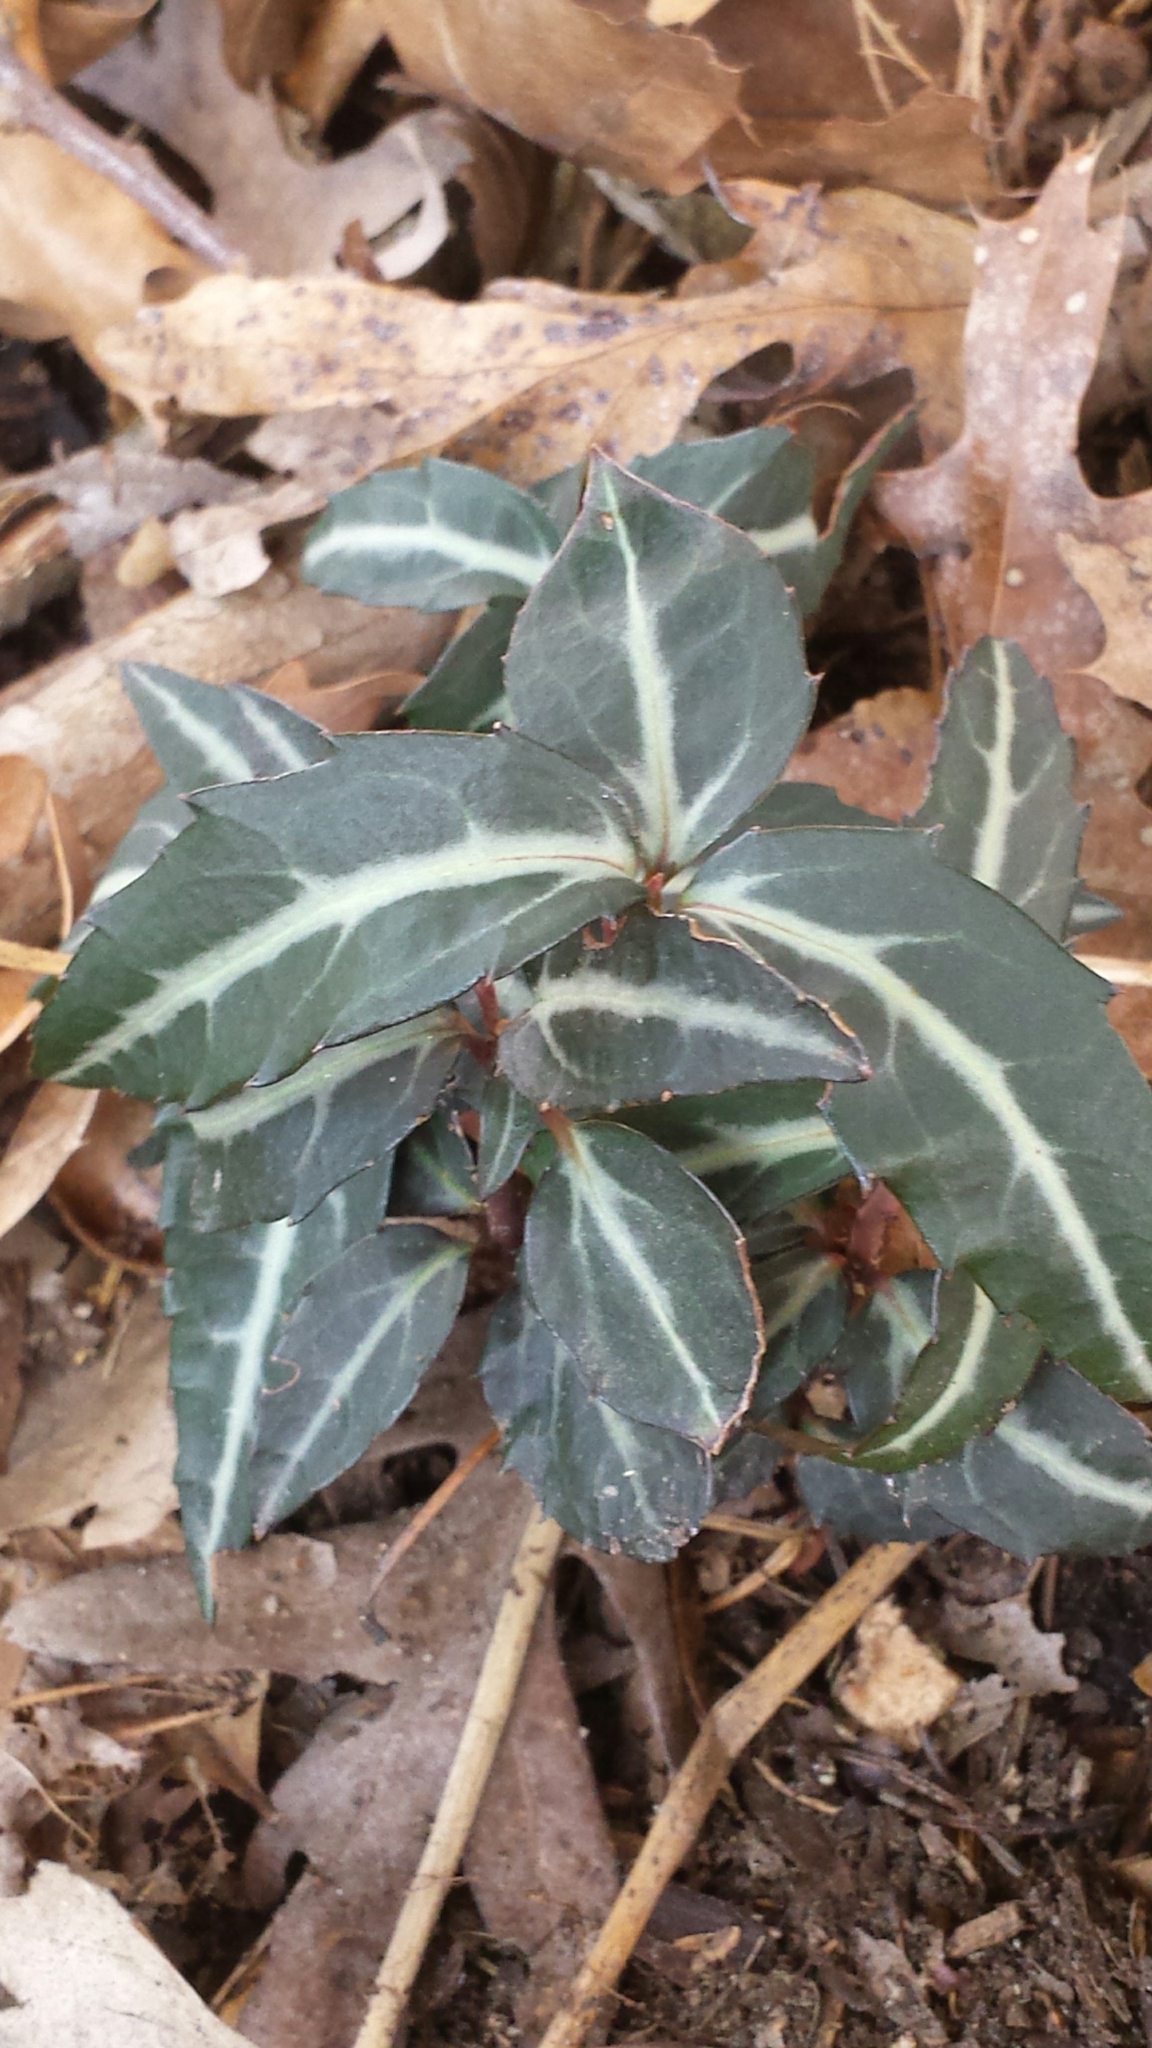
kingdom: Plantae
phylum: Tracheophyta
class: Magnoliopsida
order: Ericales
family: Ericaceae
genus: Chimaphila
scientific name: Chimaphila maculata
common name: Spotted pipsissewa
